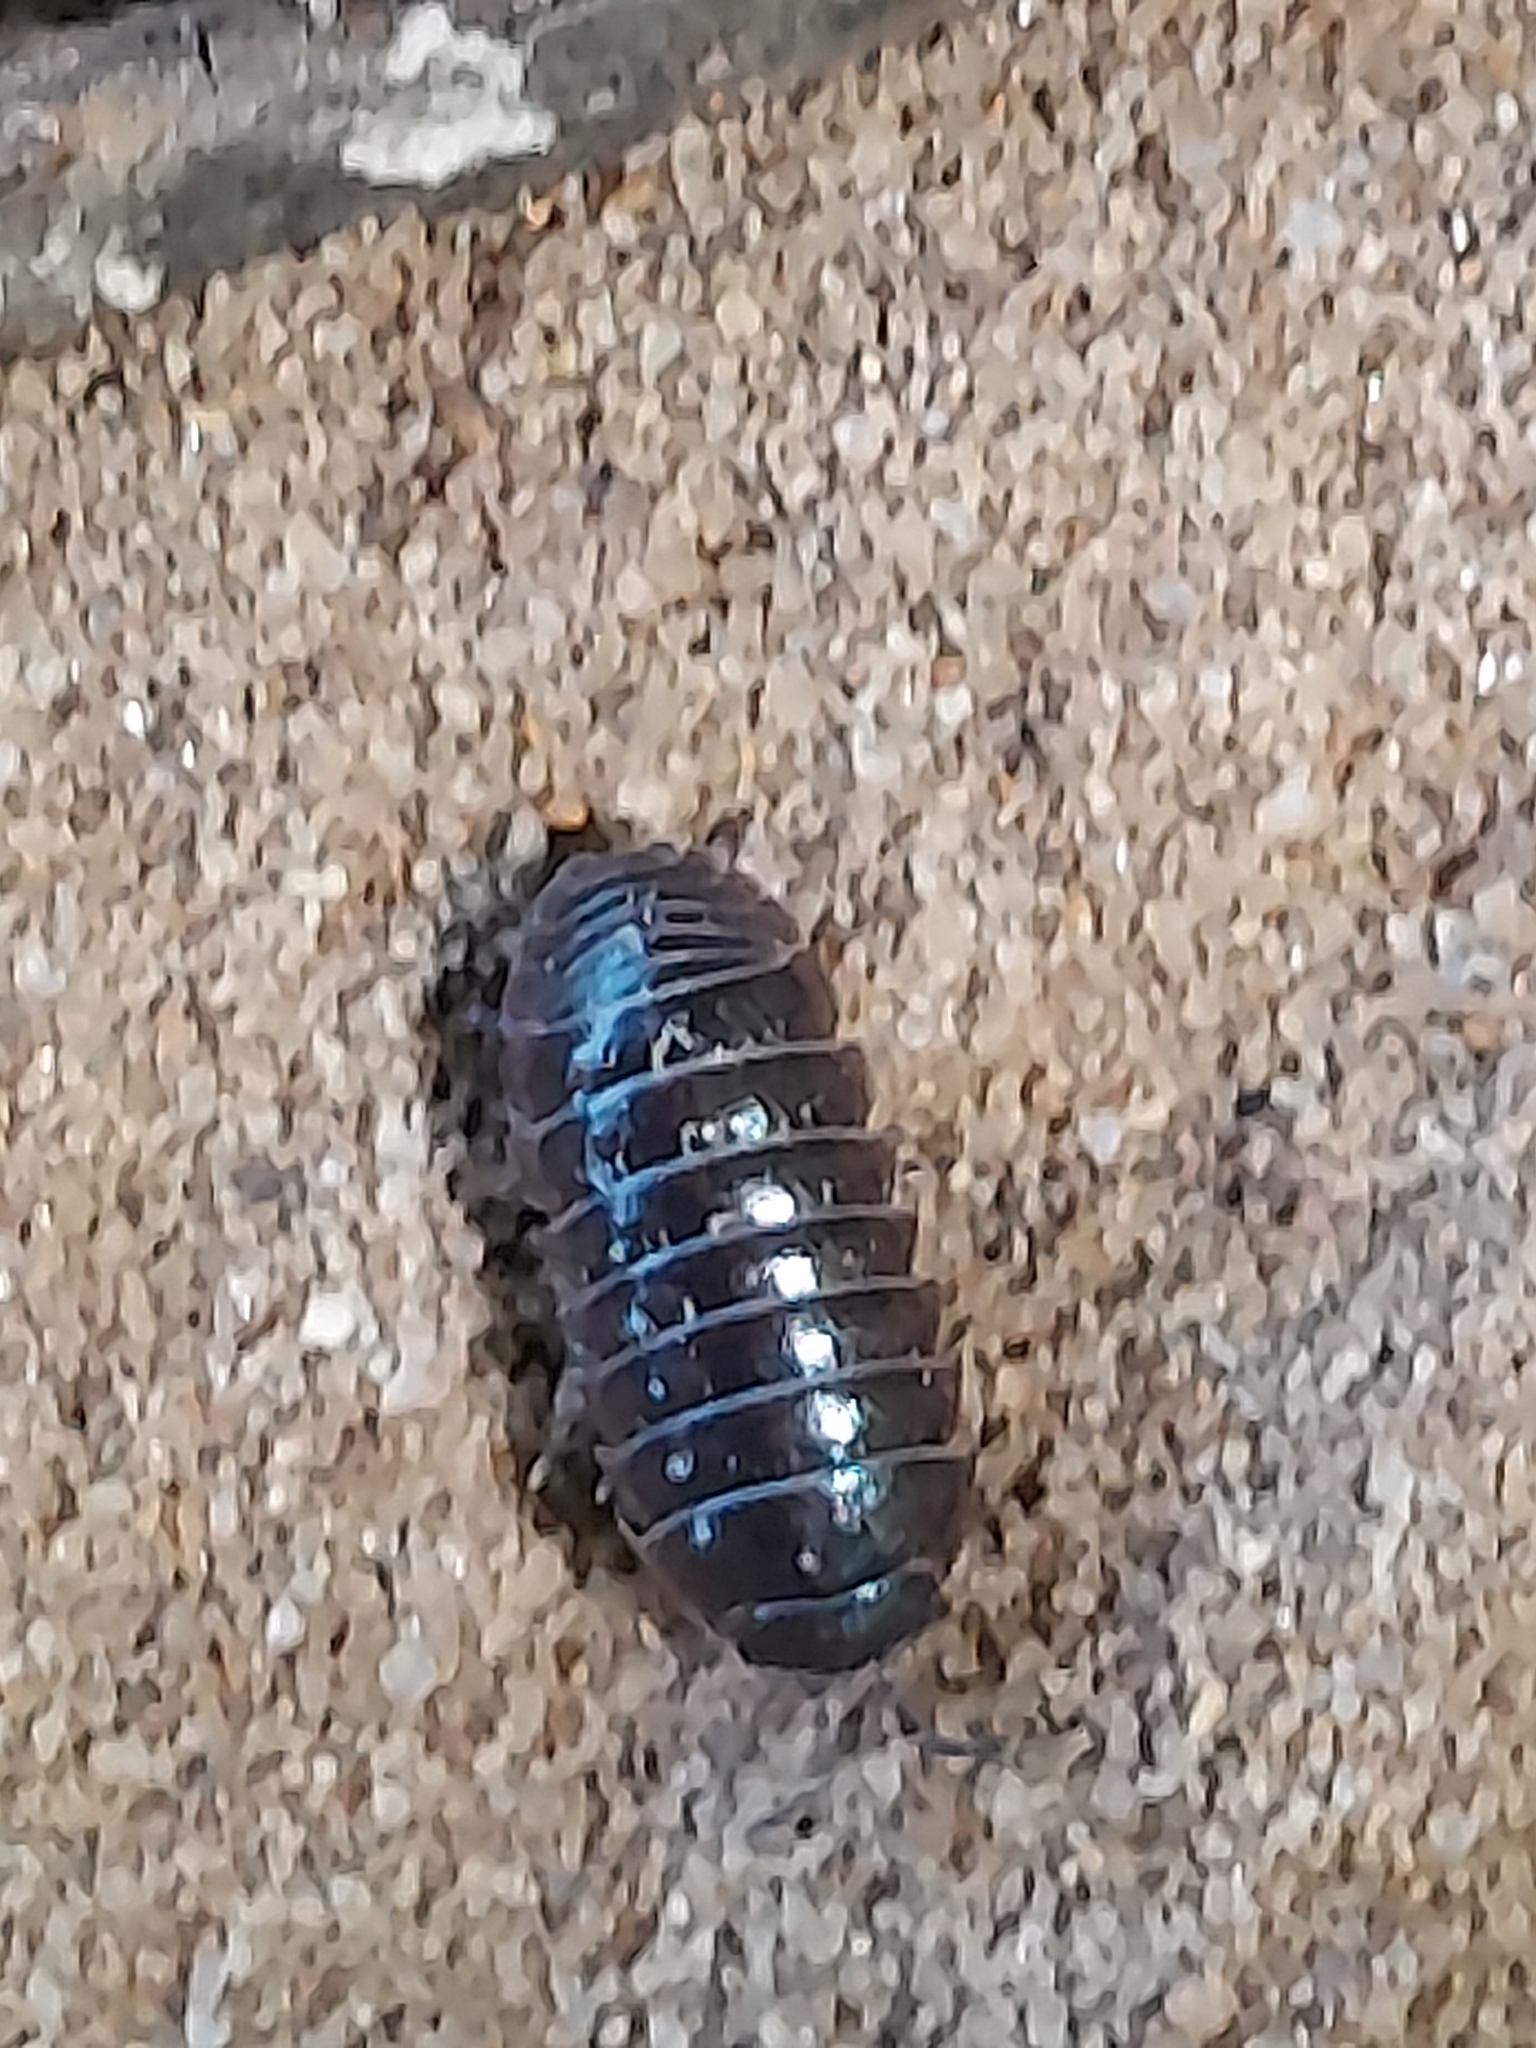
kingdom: Animalia
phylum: Arthropoda
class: Malacostraca
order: Isopoda
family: Armadillidiidae
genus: Armadillidium
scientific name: Armadillidium vulgare
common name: Common pill woodlouse
